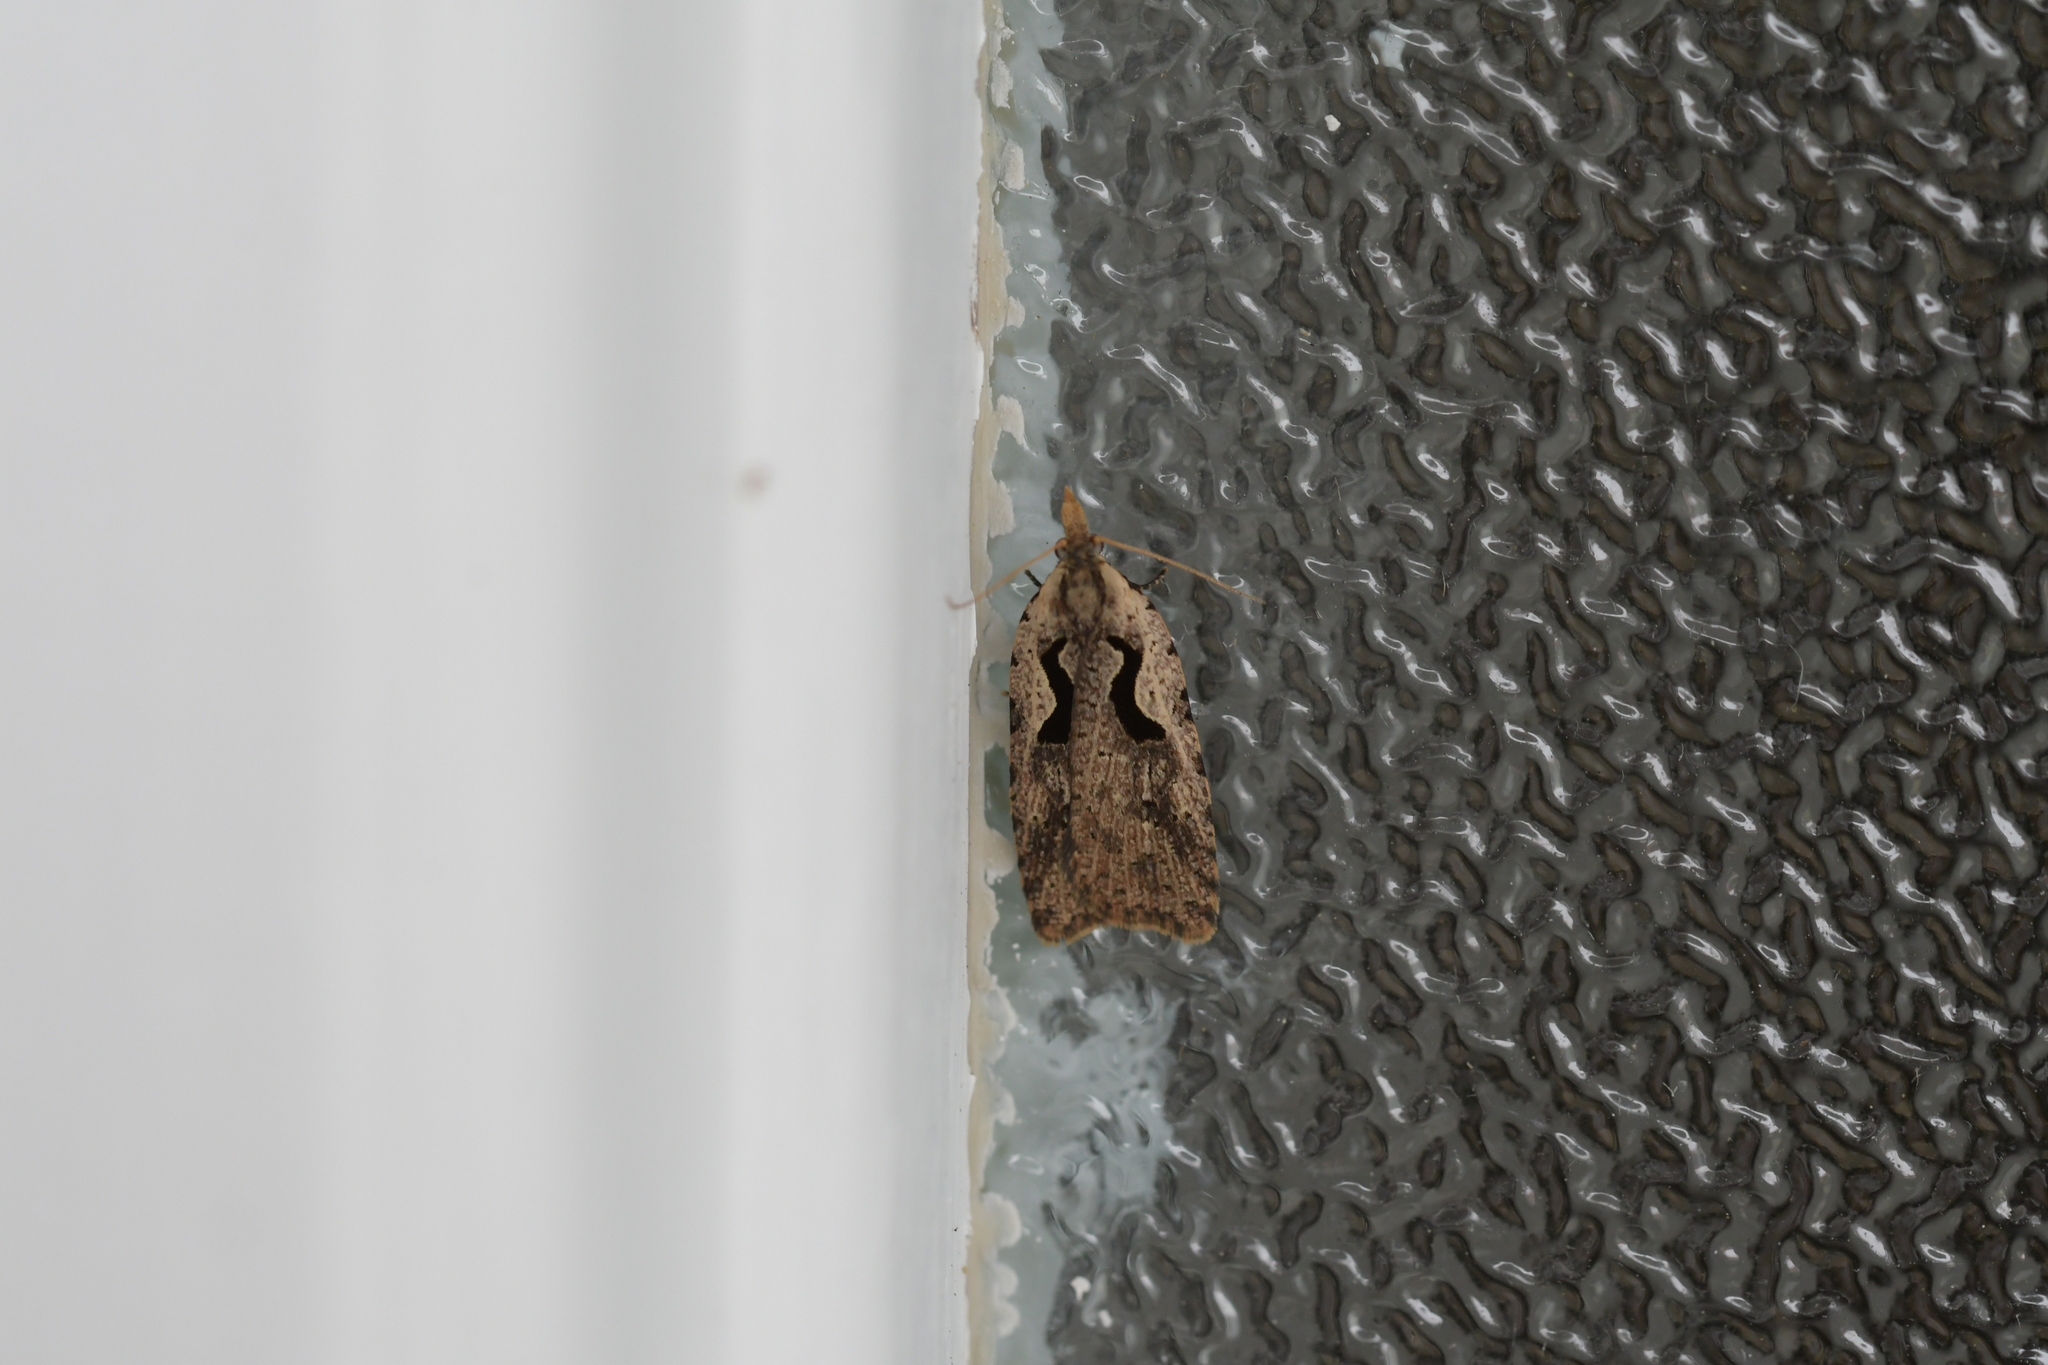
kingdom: Animalia
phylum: Arthropoda
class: Insecta
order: Lepidoptera
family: Tortricidae
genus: Cnephasia
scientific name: Cnephasia jactatana
